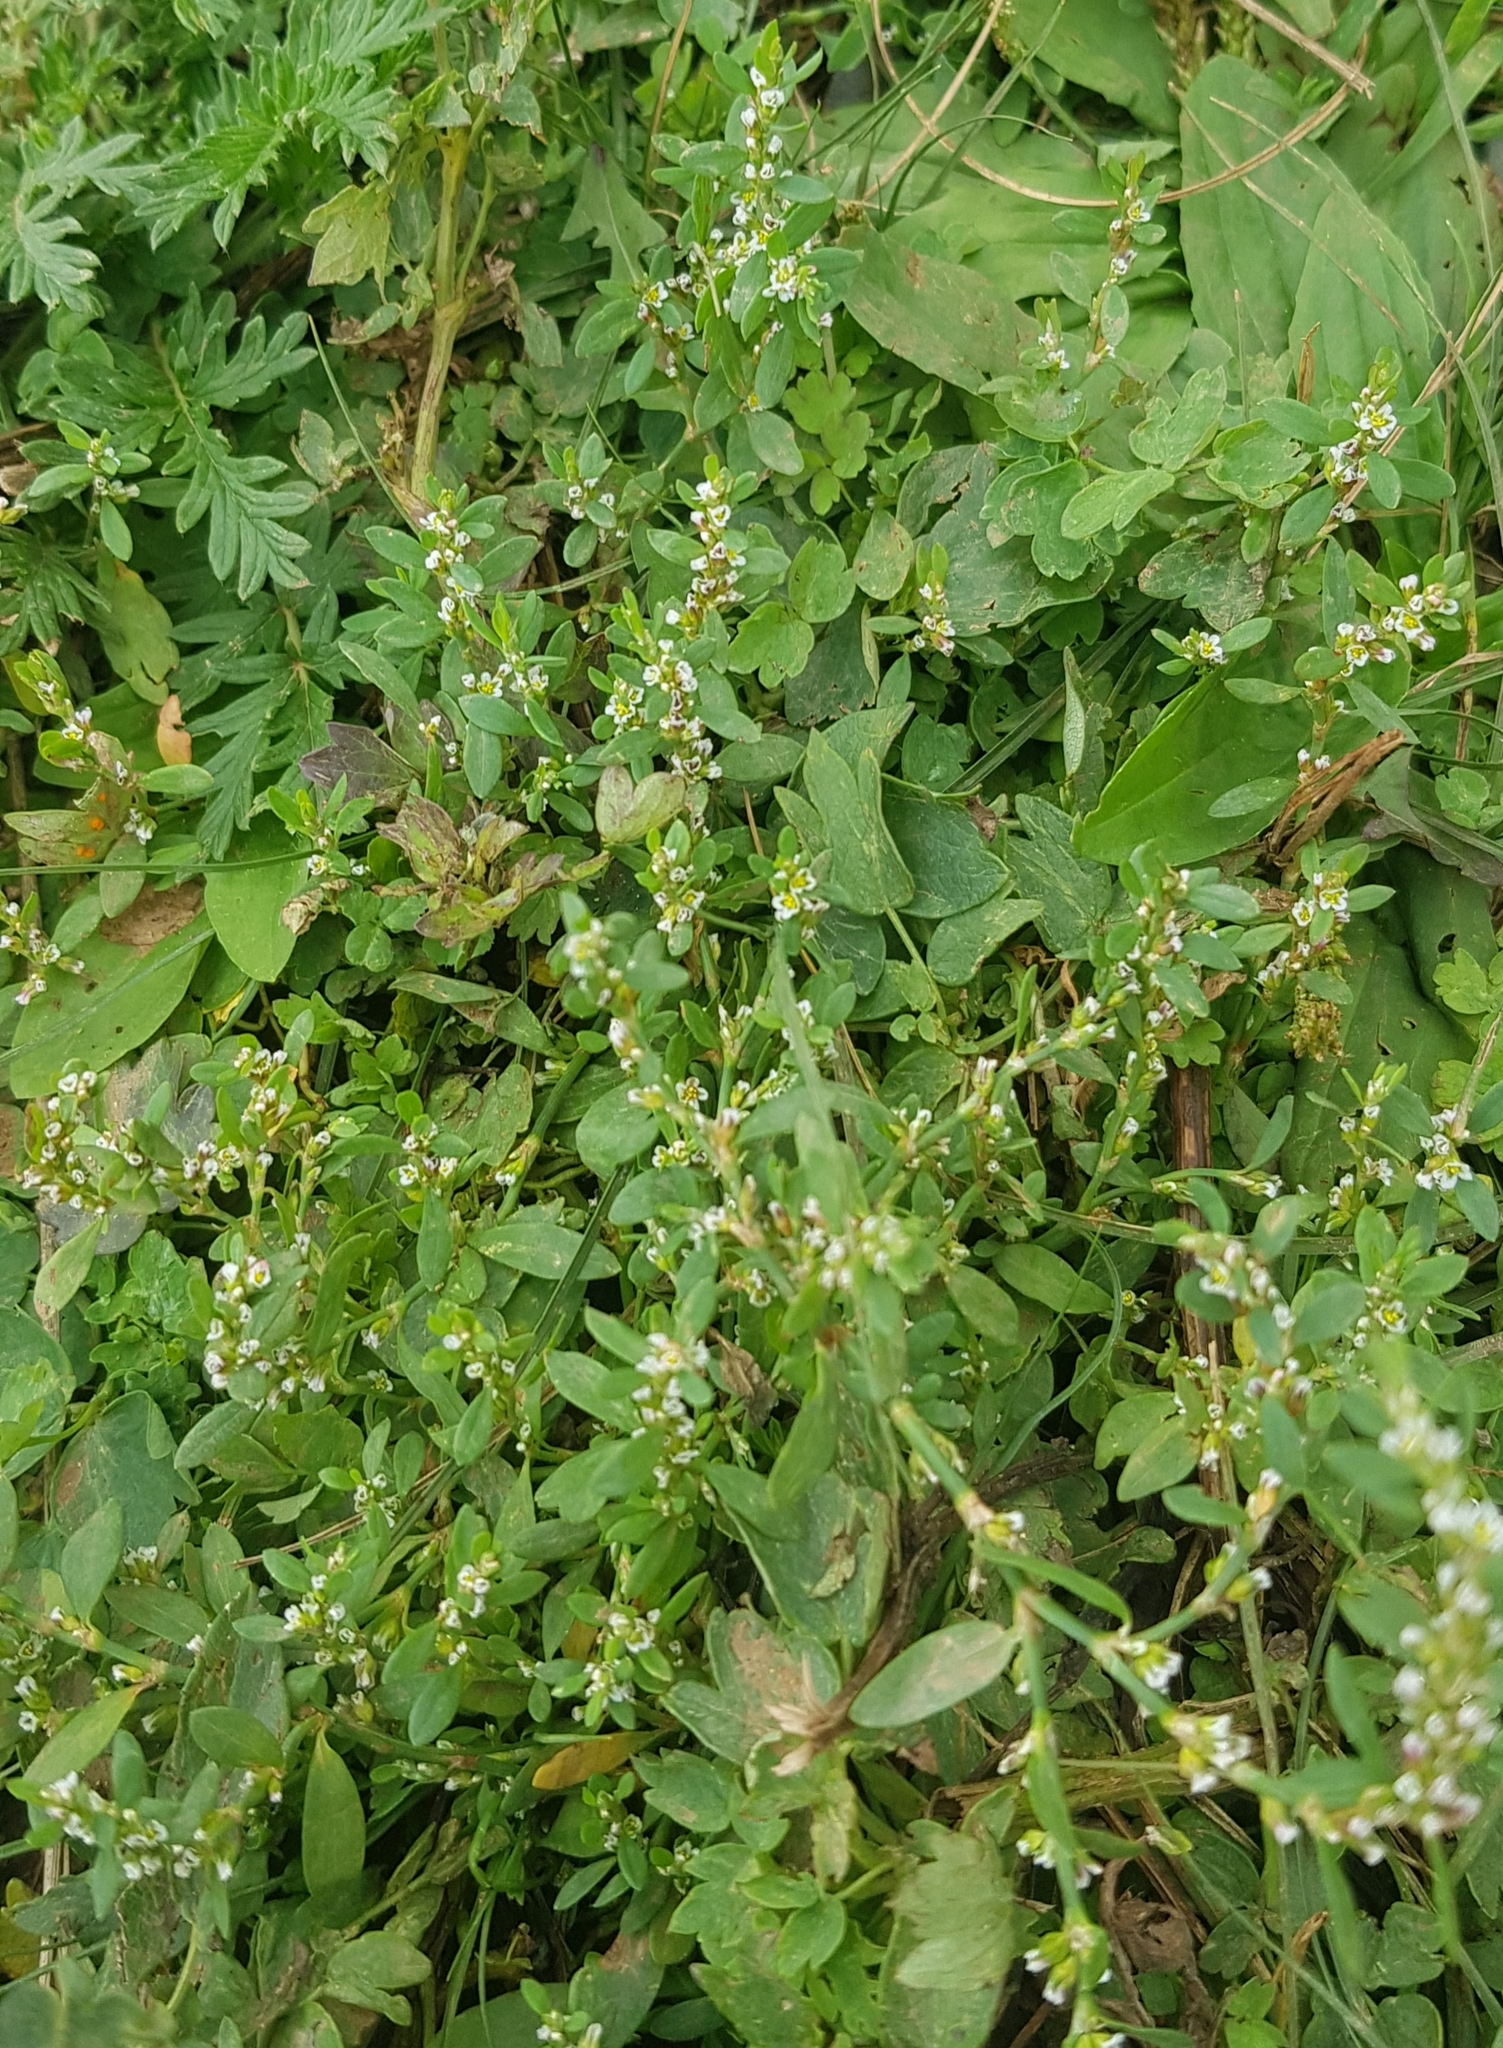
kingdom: Plantae
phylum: Tracheophyta
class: Magnoliopsida
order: Caryophyllales
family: Polygonaceae
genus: Polygonum
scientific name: Polygonum aviculare
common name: Prostrate knotweed
